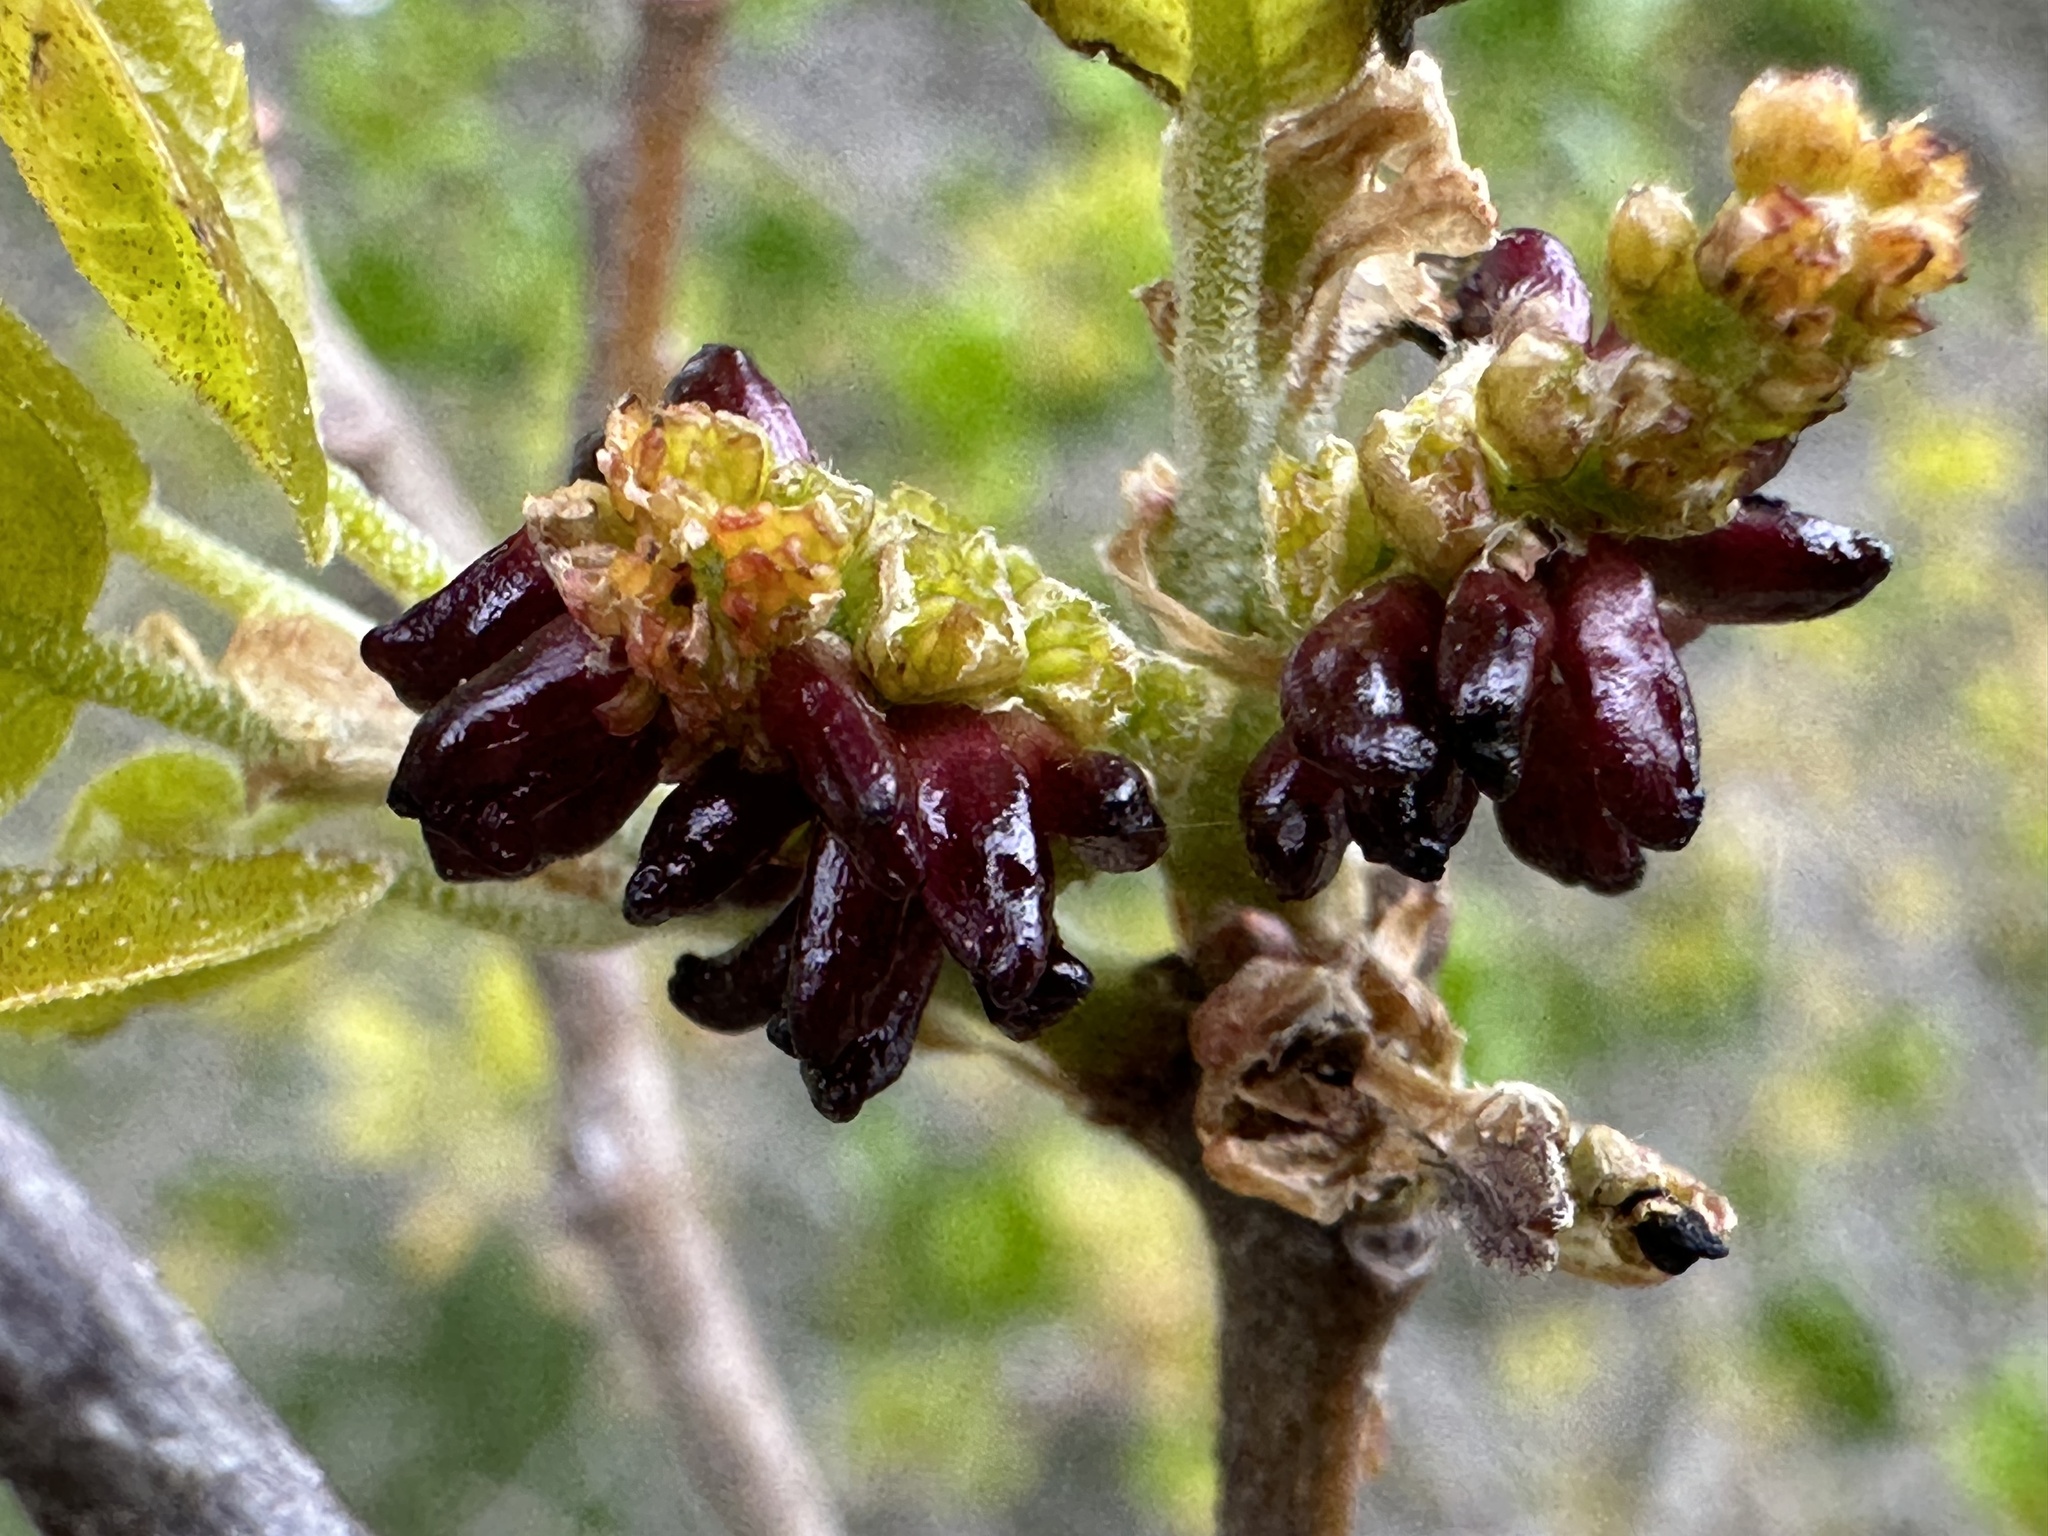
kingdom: Animalia
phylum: Arthropoda
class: Insecta
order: Hymenoptera
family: Cynipidae
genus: Dryocosmus
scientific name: Dryocosmus
